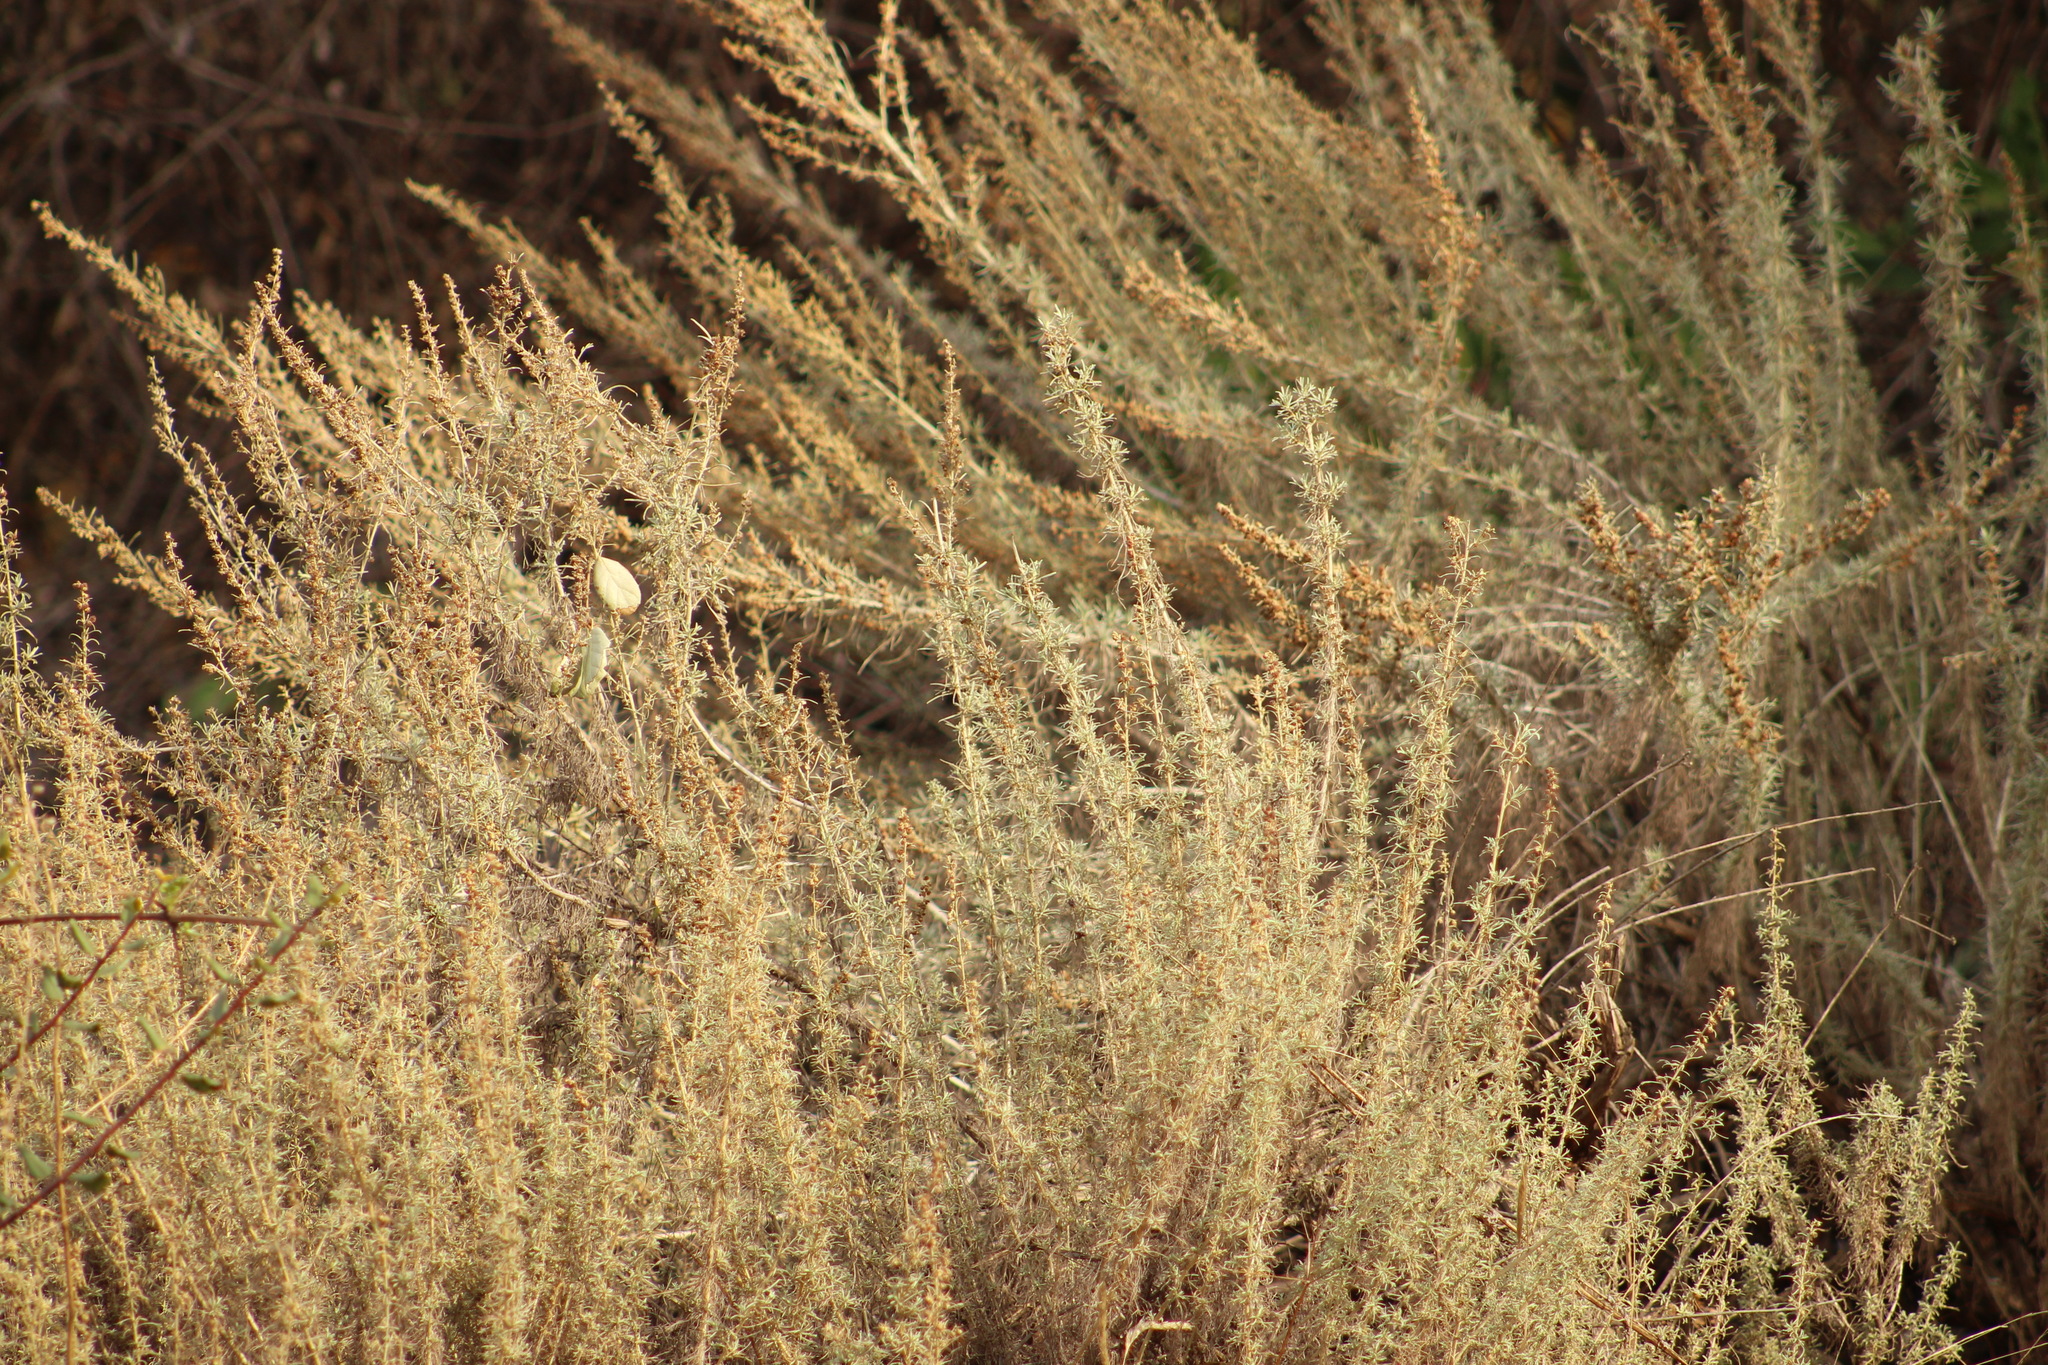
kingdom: Plantae
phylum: Tracheophyta
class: Magnoliopsida
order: Asterales
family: Asteraceae
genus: Artemisia
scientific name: Artemisia californica
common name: California sagebrush
